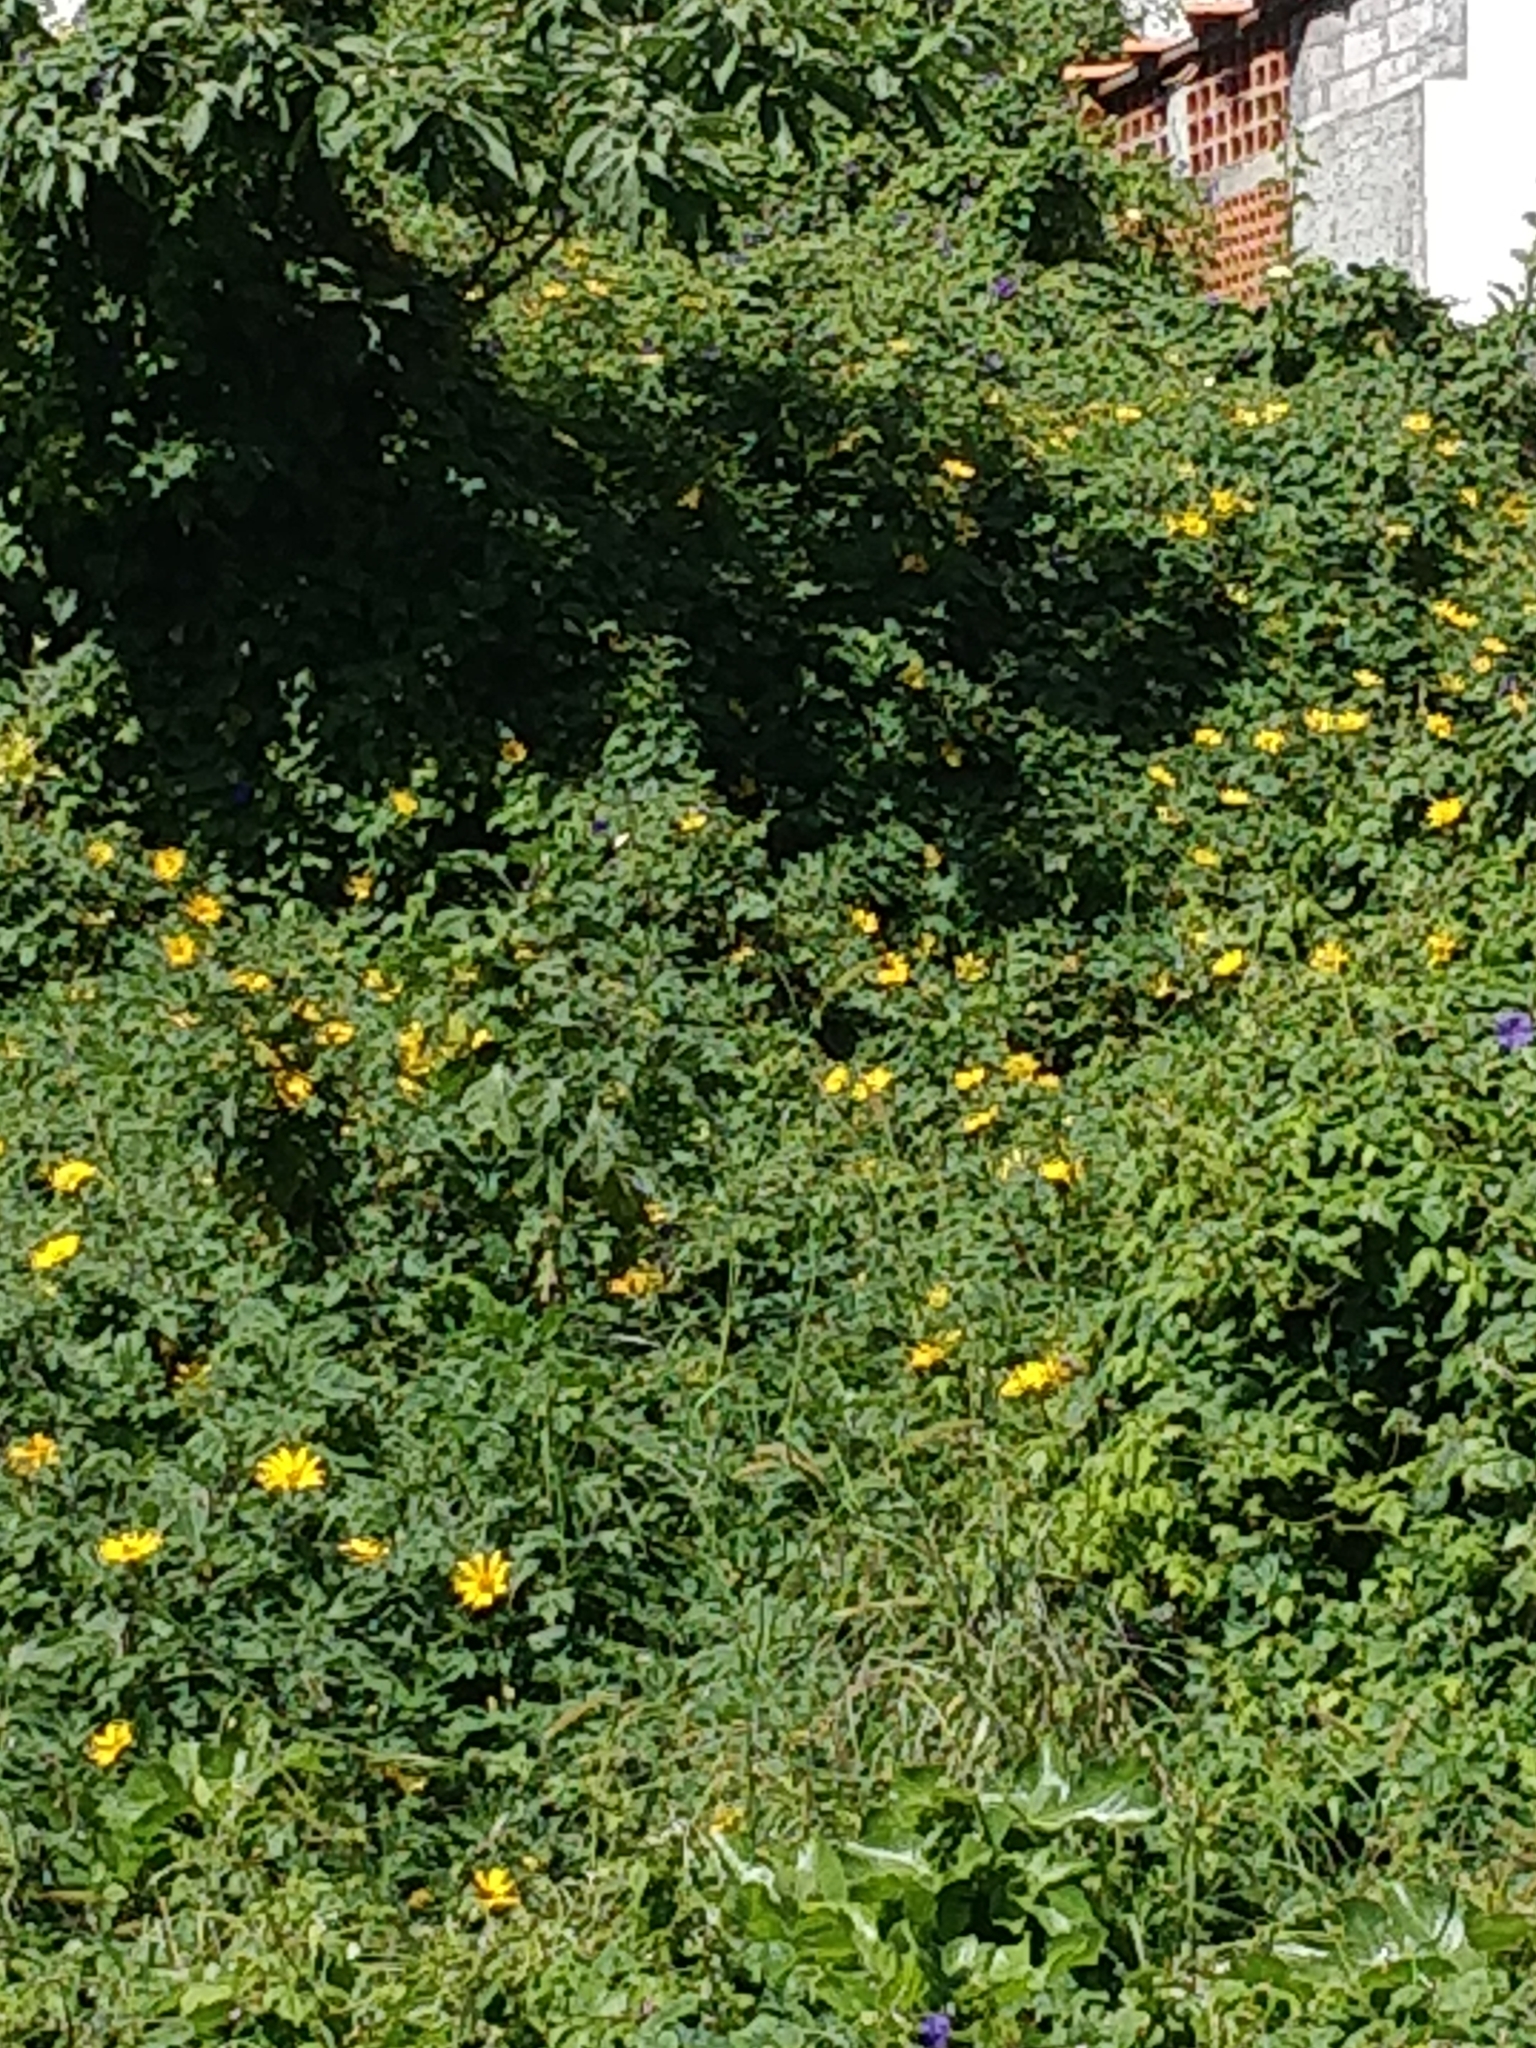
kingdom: Plantae
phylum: Tracheophyta
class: Magnoliopsida
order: Asterales
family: Asteraceae
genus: Tithonia
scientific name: Tithonia diversifolia
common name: Tree marigold
